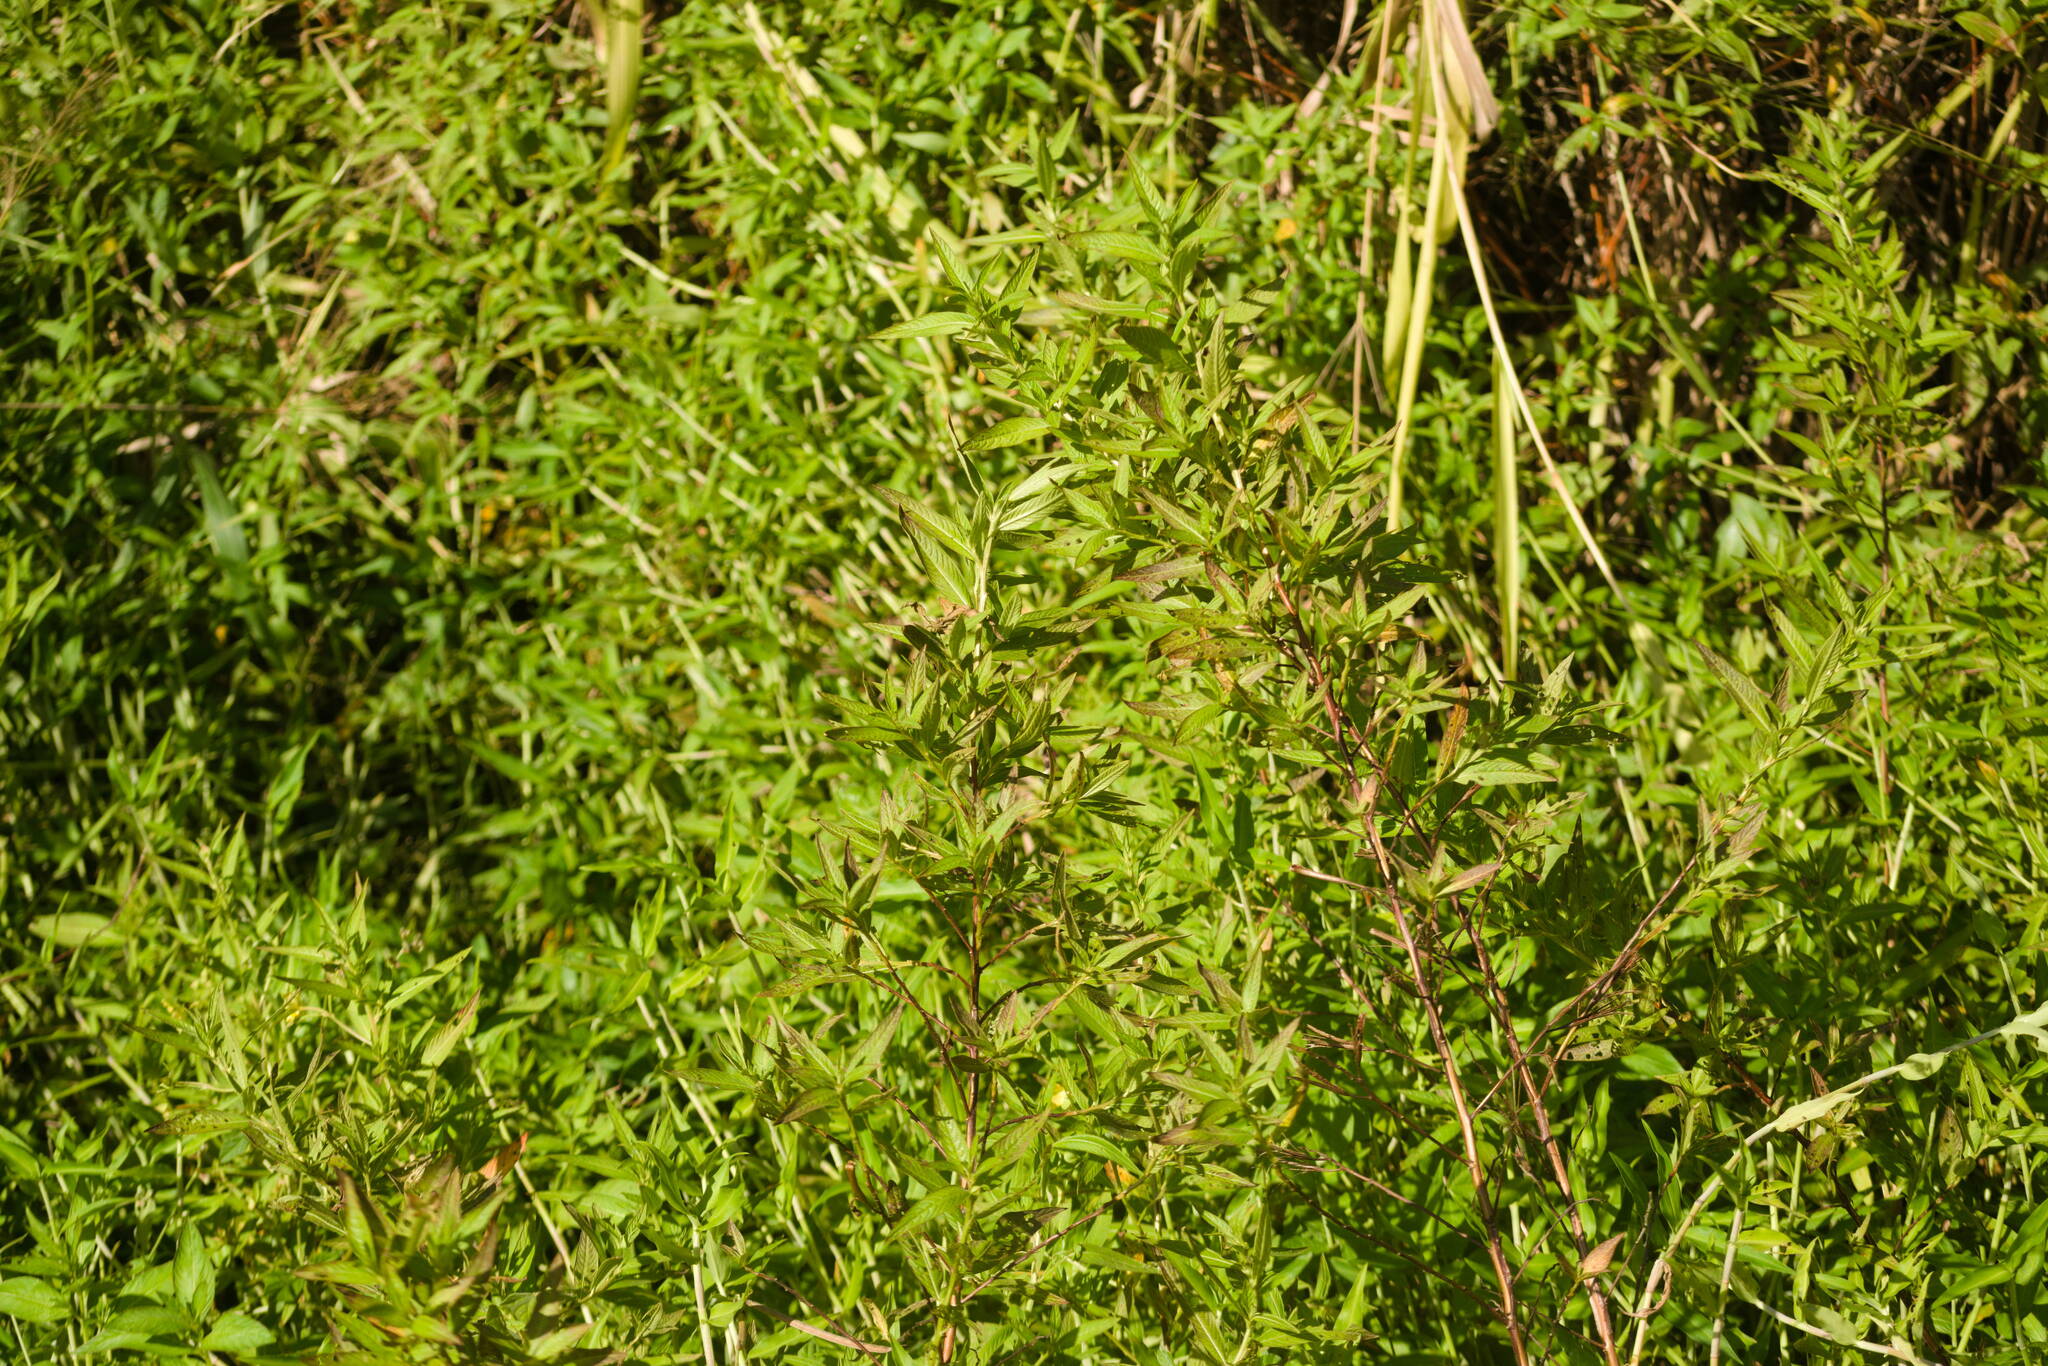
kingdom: Plantae
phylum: Tracheophyta
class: Magnoliopsida
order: Myrtales
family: Onagraceae
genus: Ludwigia
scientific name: Ludwigia octovalvis
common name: Water-primrose
